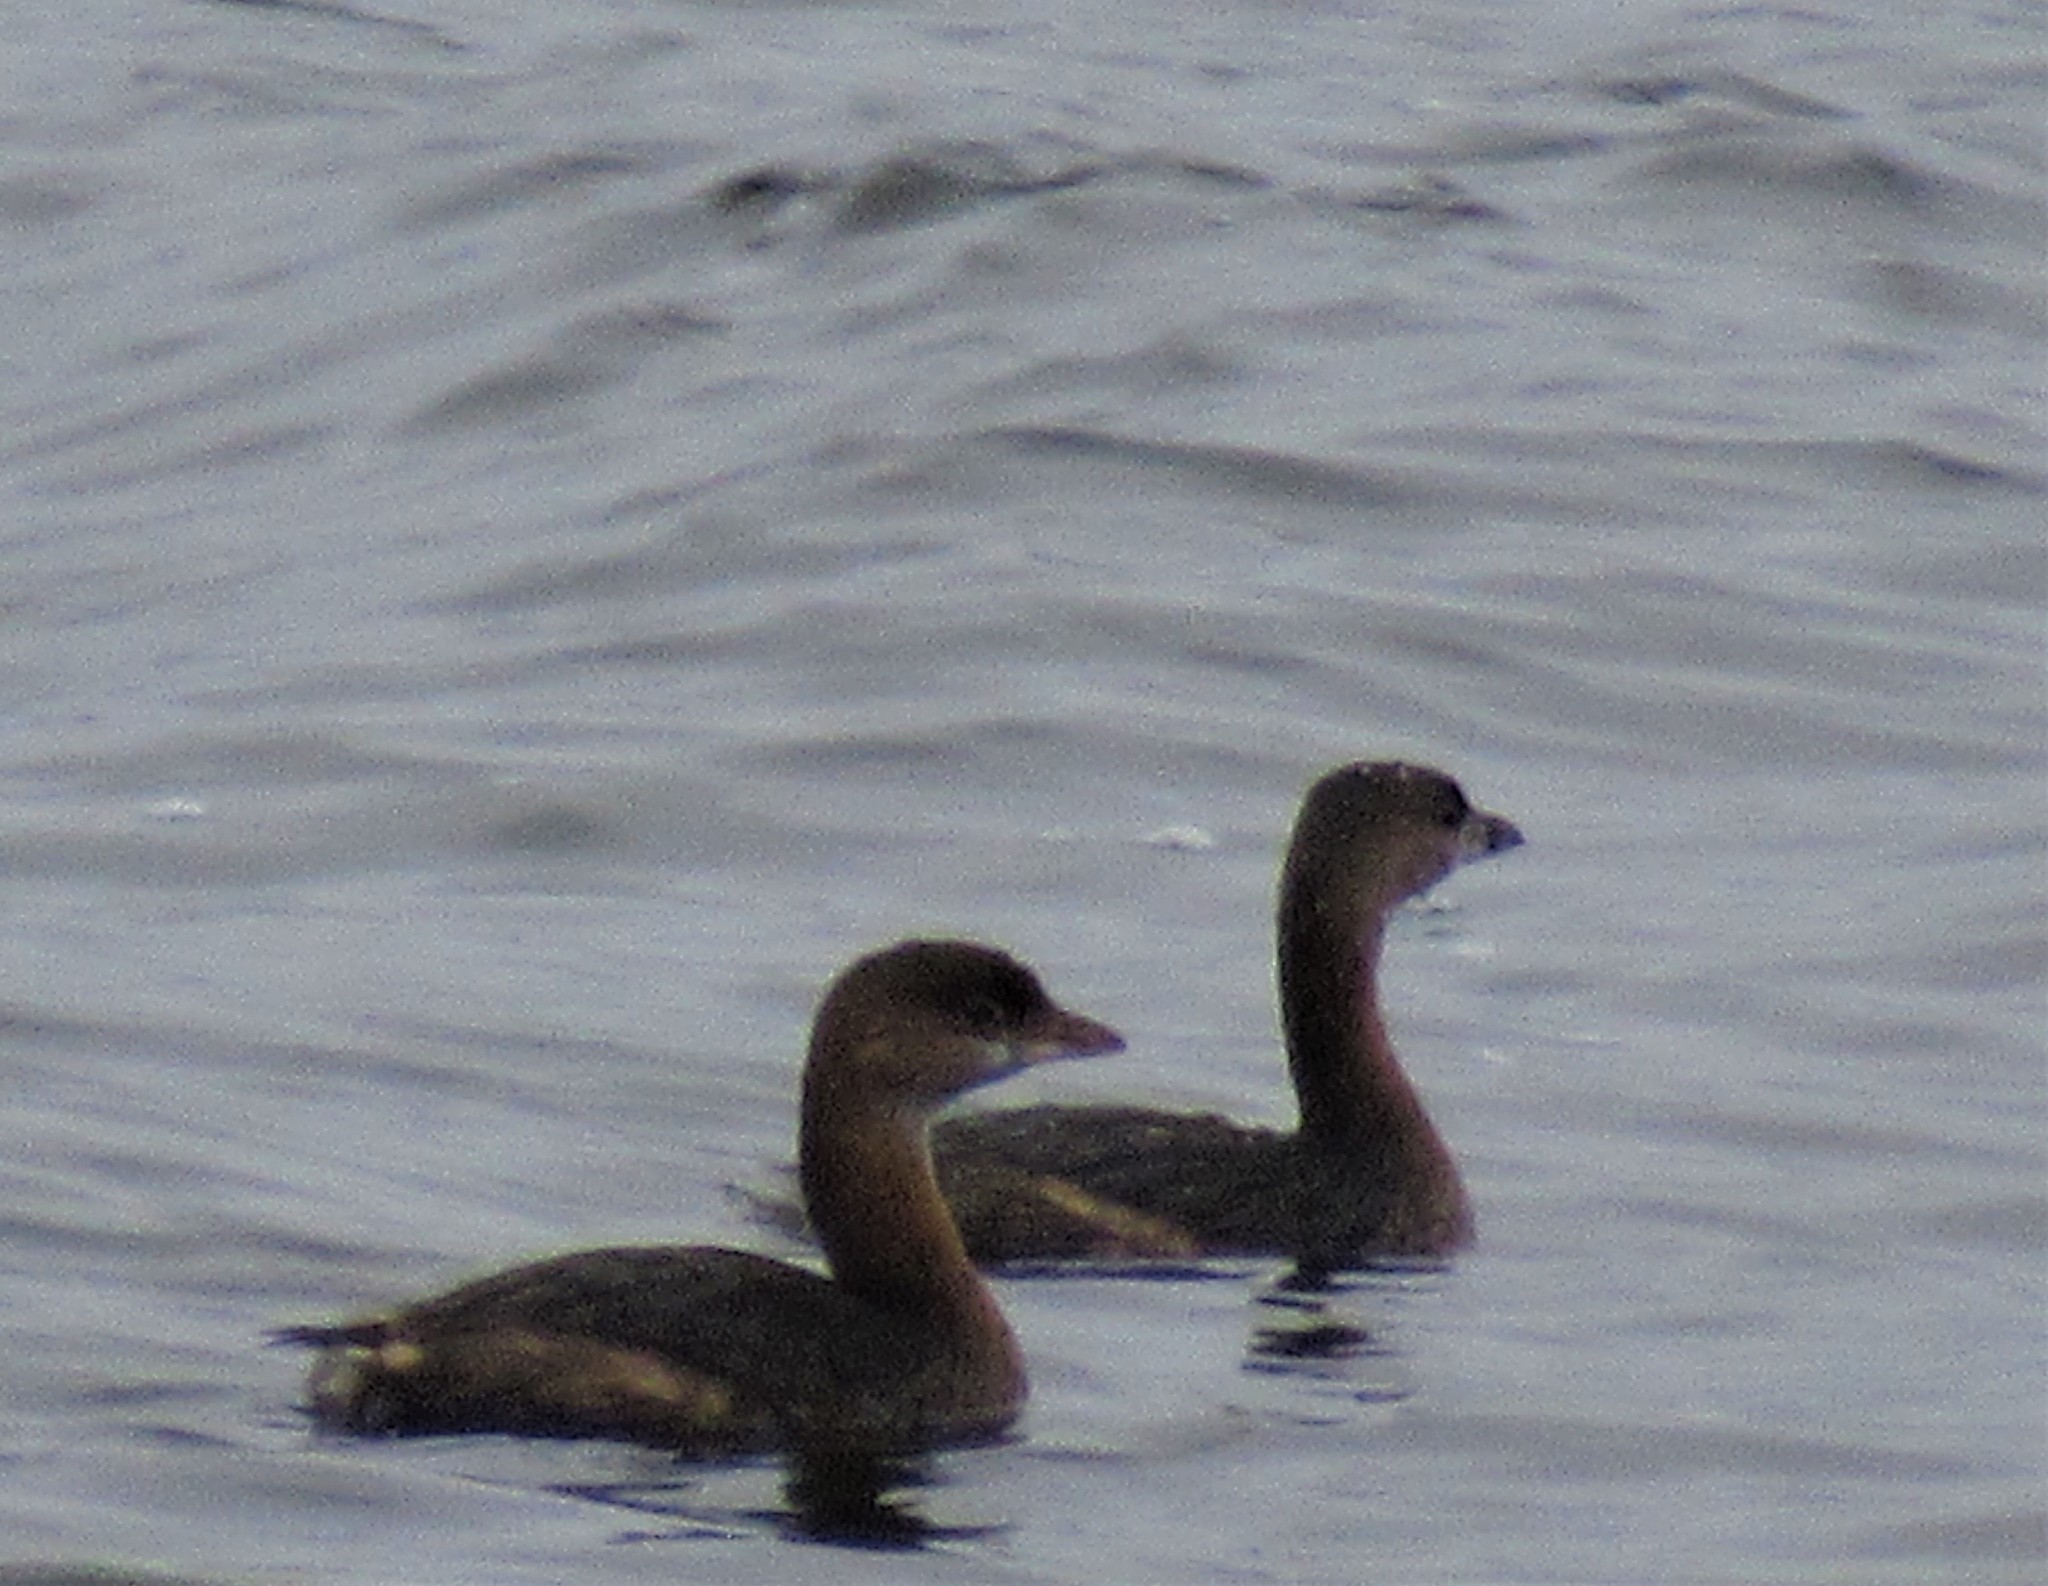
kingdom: Animalia
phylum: Chordata
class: Aves
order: Podicipediformes
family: Podicipedidae
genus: Podilymbus
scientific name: Podilymbus podiceps
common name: Pied-billed grebe
